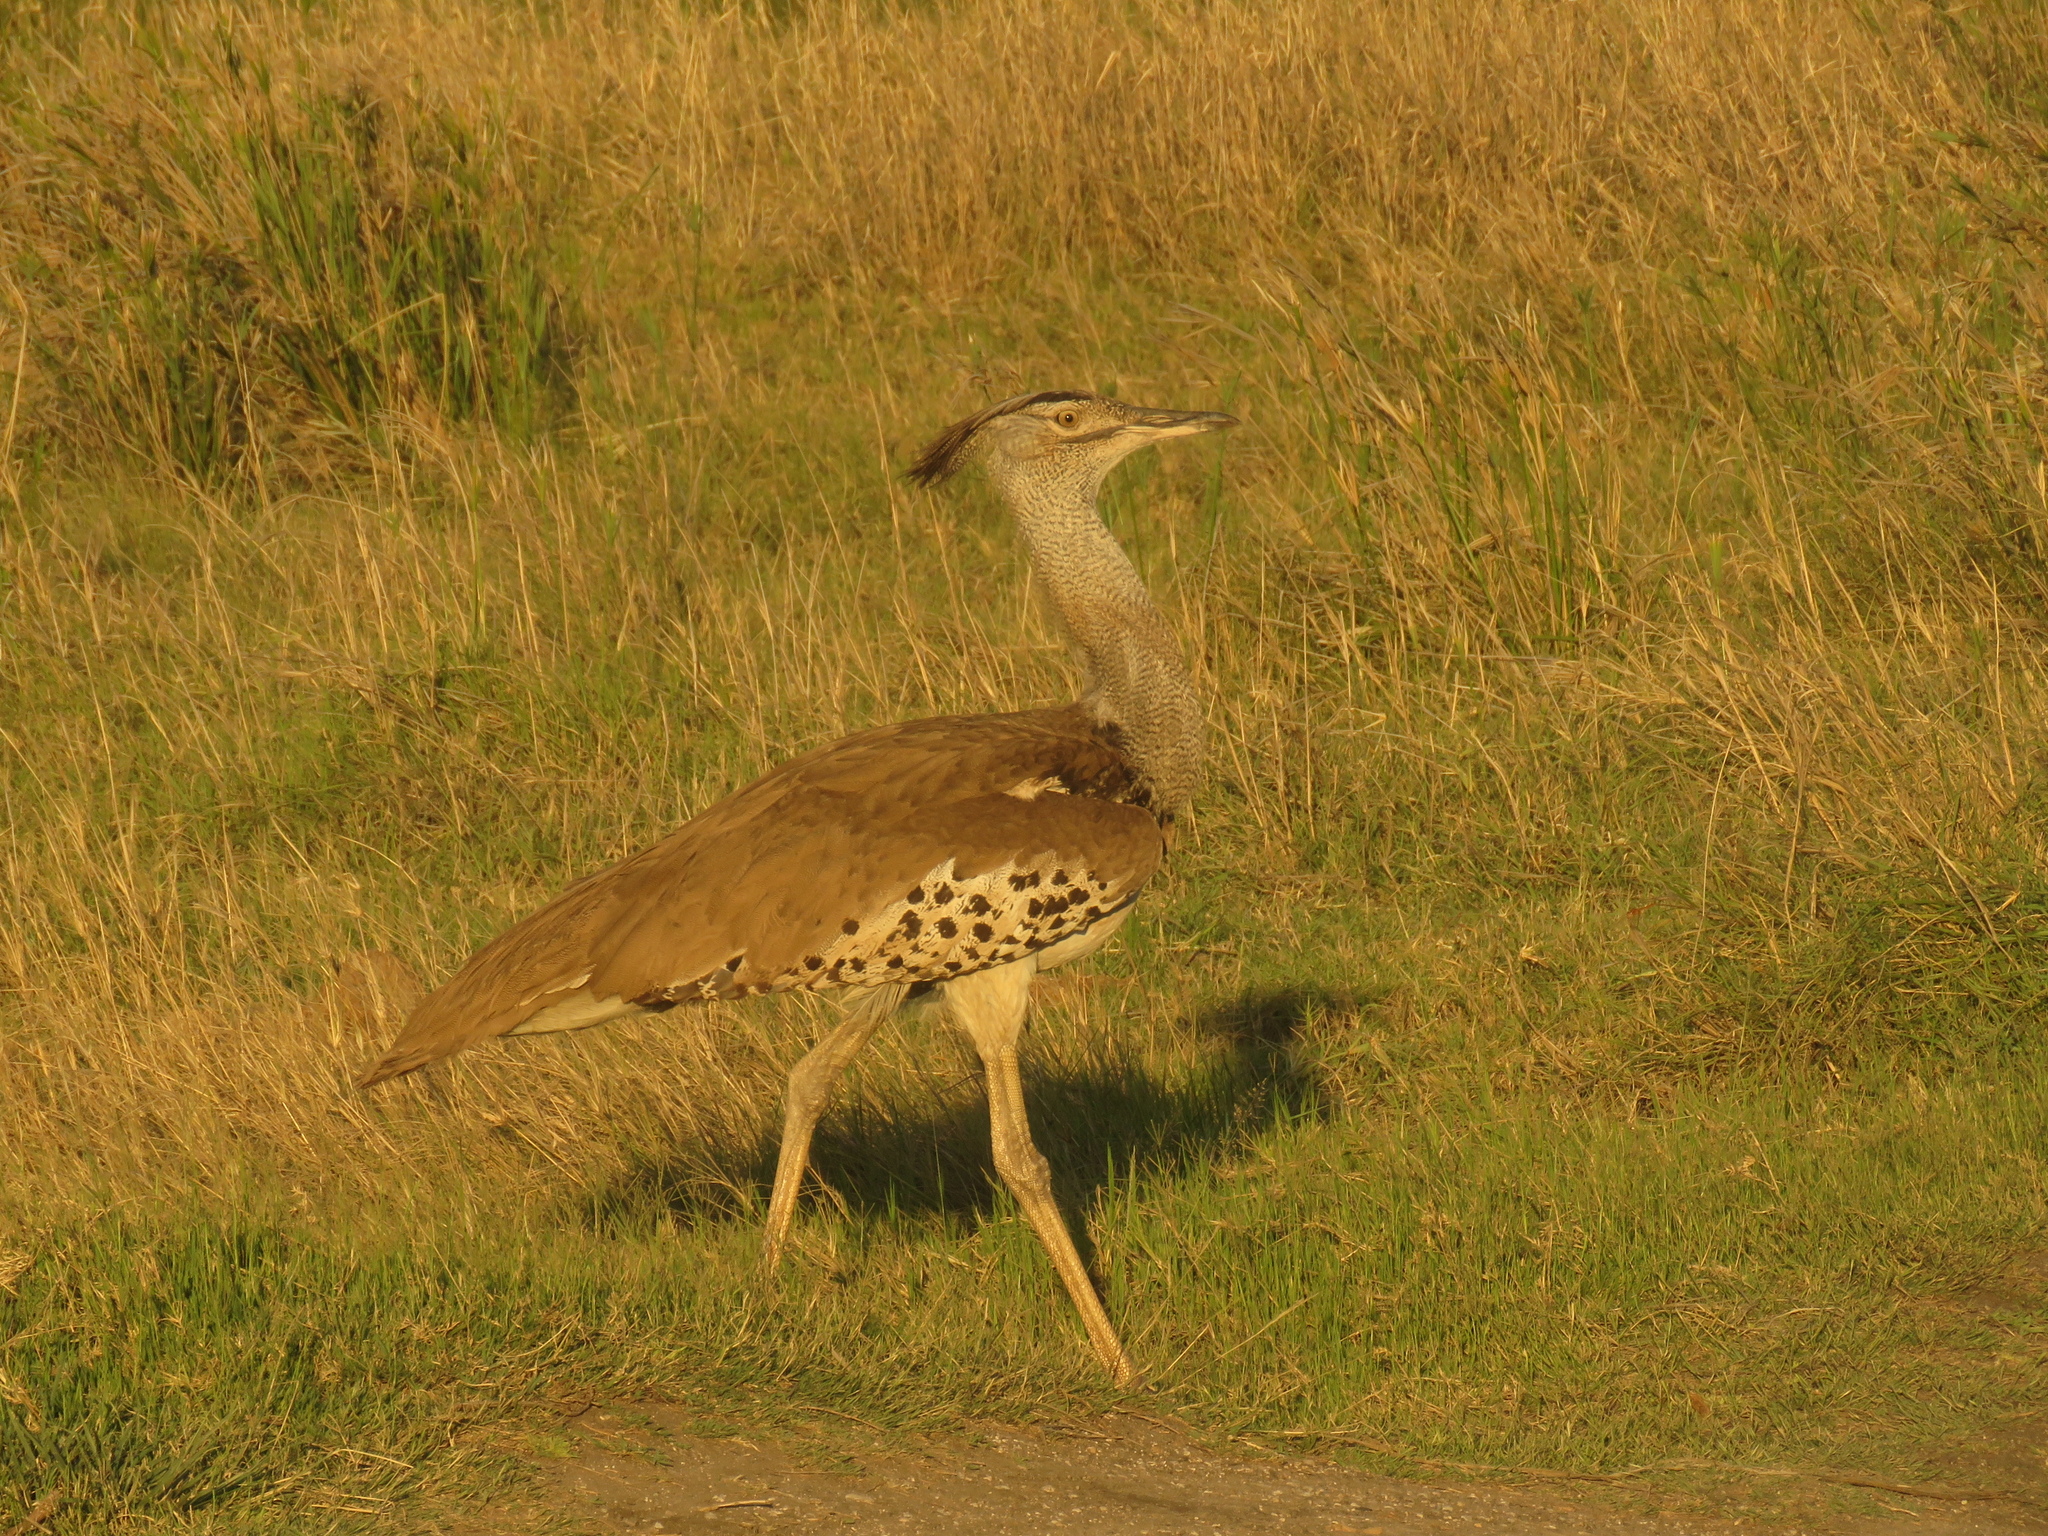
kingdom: Animalia
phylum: Chordata
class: Aves
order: Otidiformes
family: Otididae
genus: Ardeotis
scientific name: Ardeotis kori
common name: Kori bustard
